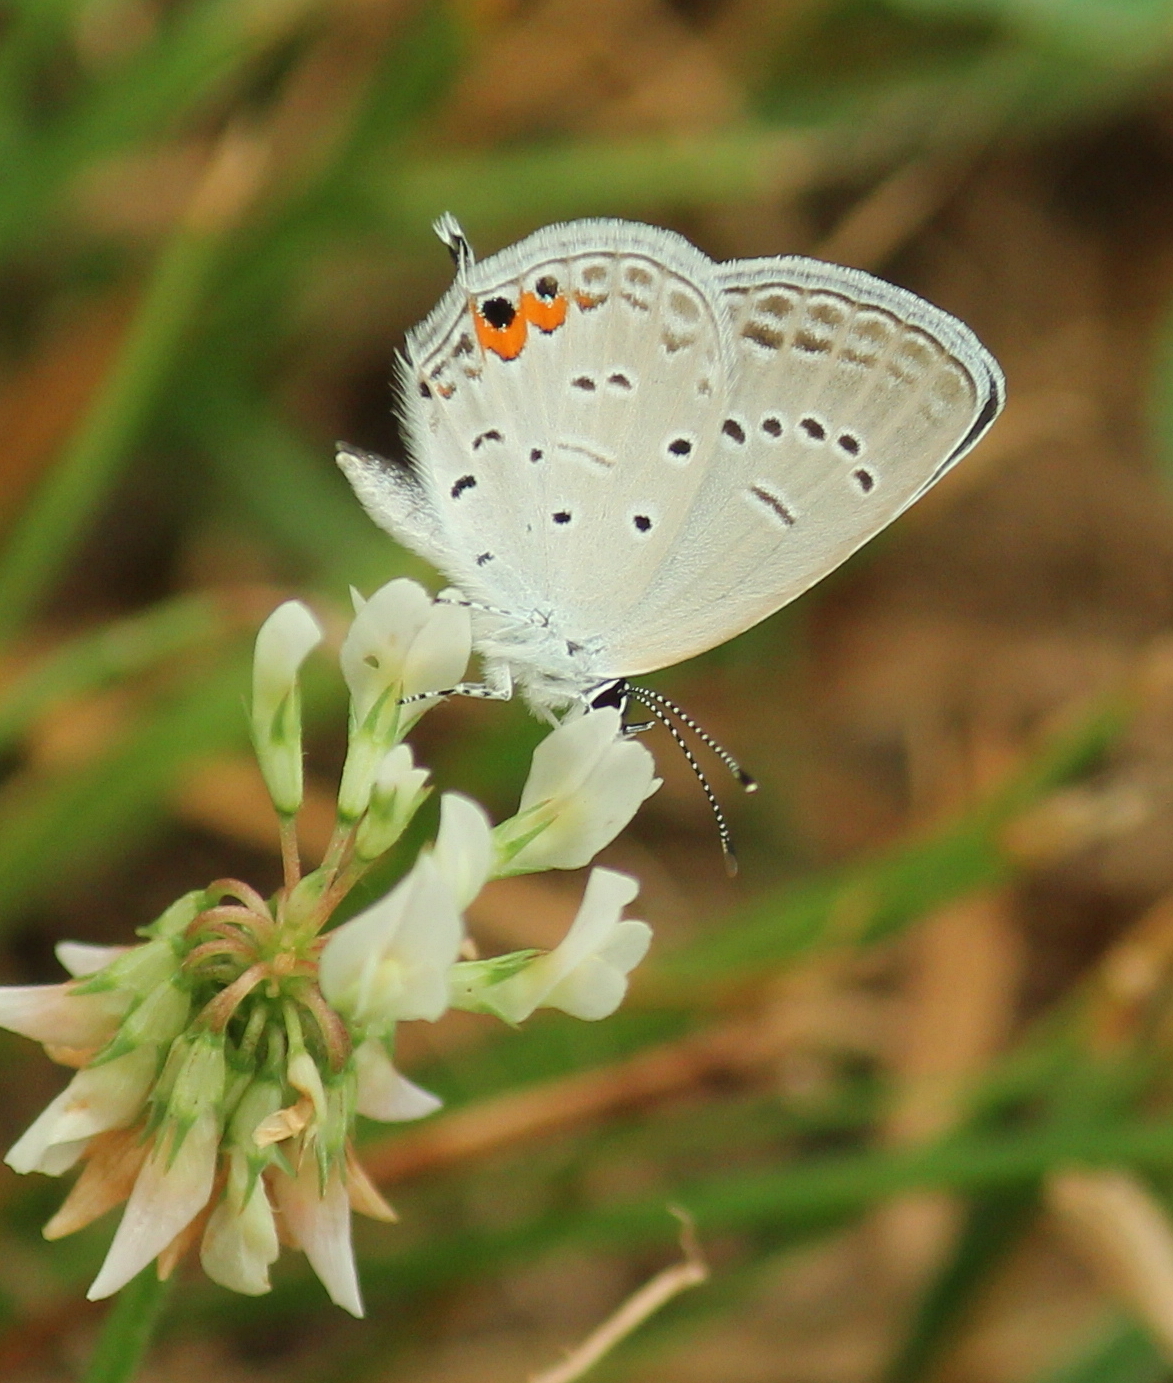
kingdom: Animalia
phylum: Arthropoda
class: Insecta
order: Lepidoptera
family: Lycaenidae
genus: Elkalyce
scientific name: Elkalyce comyntas
